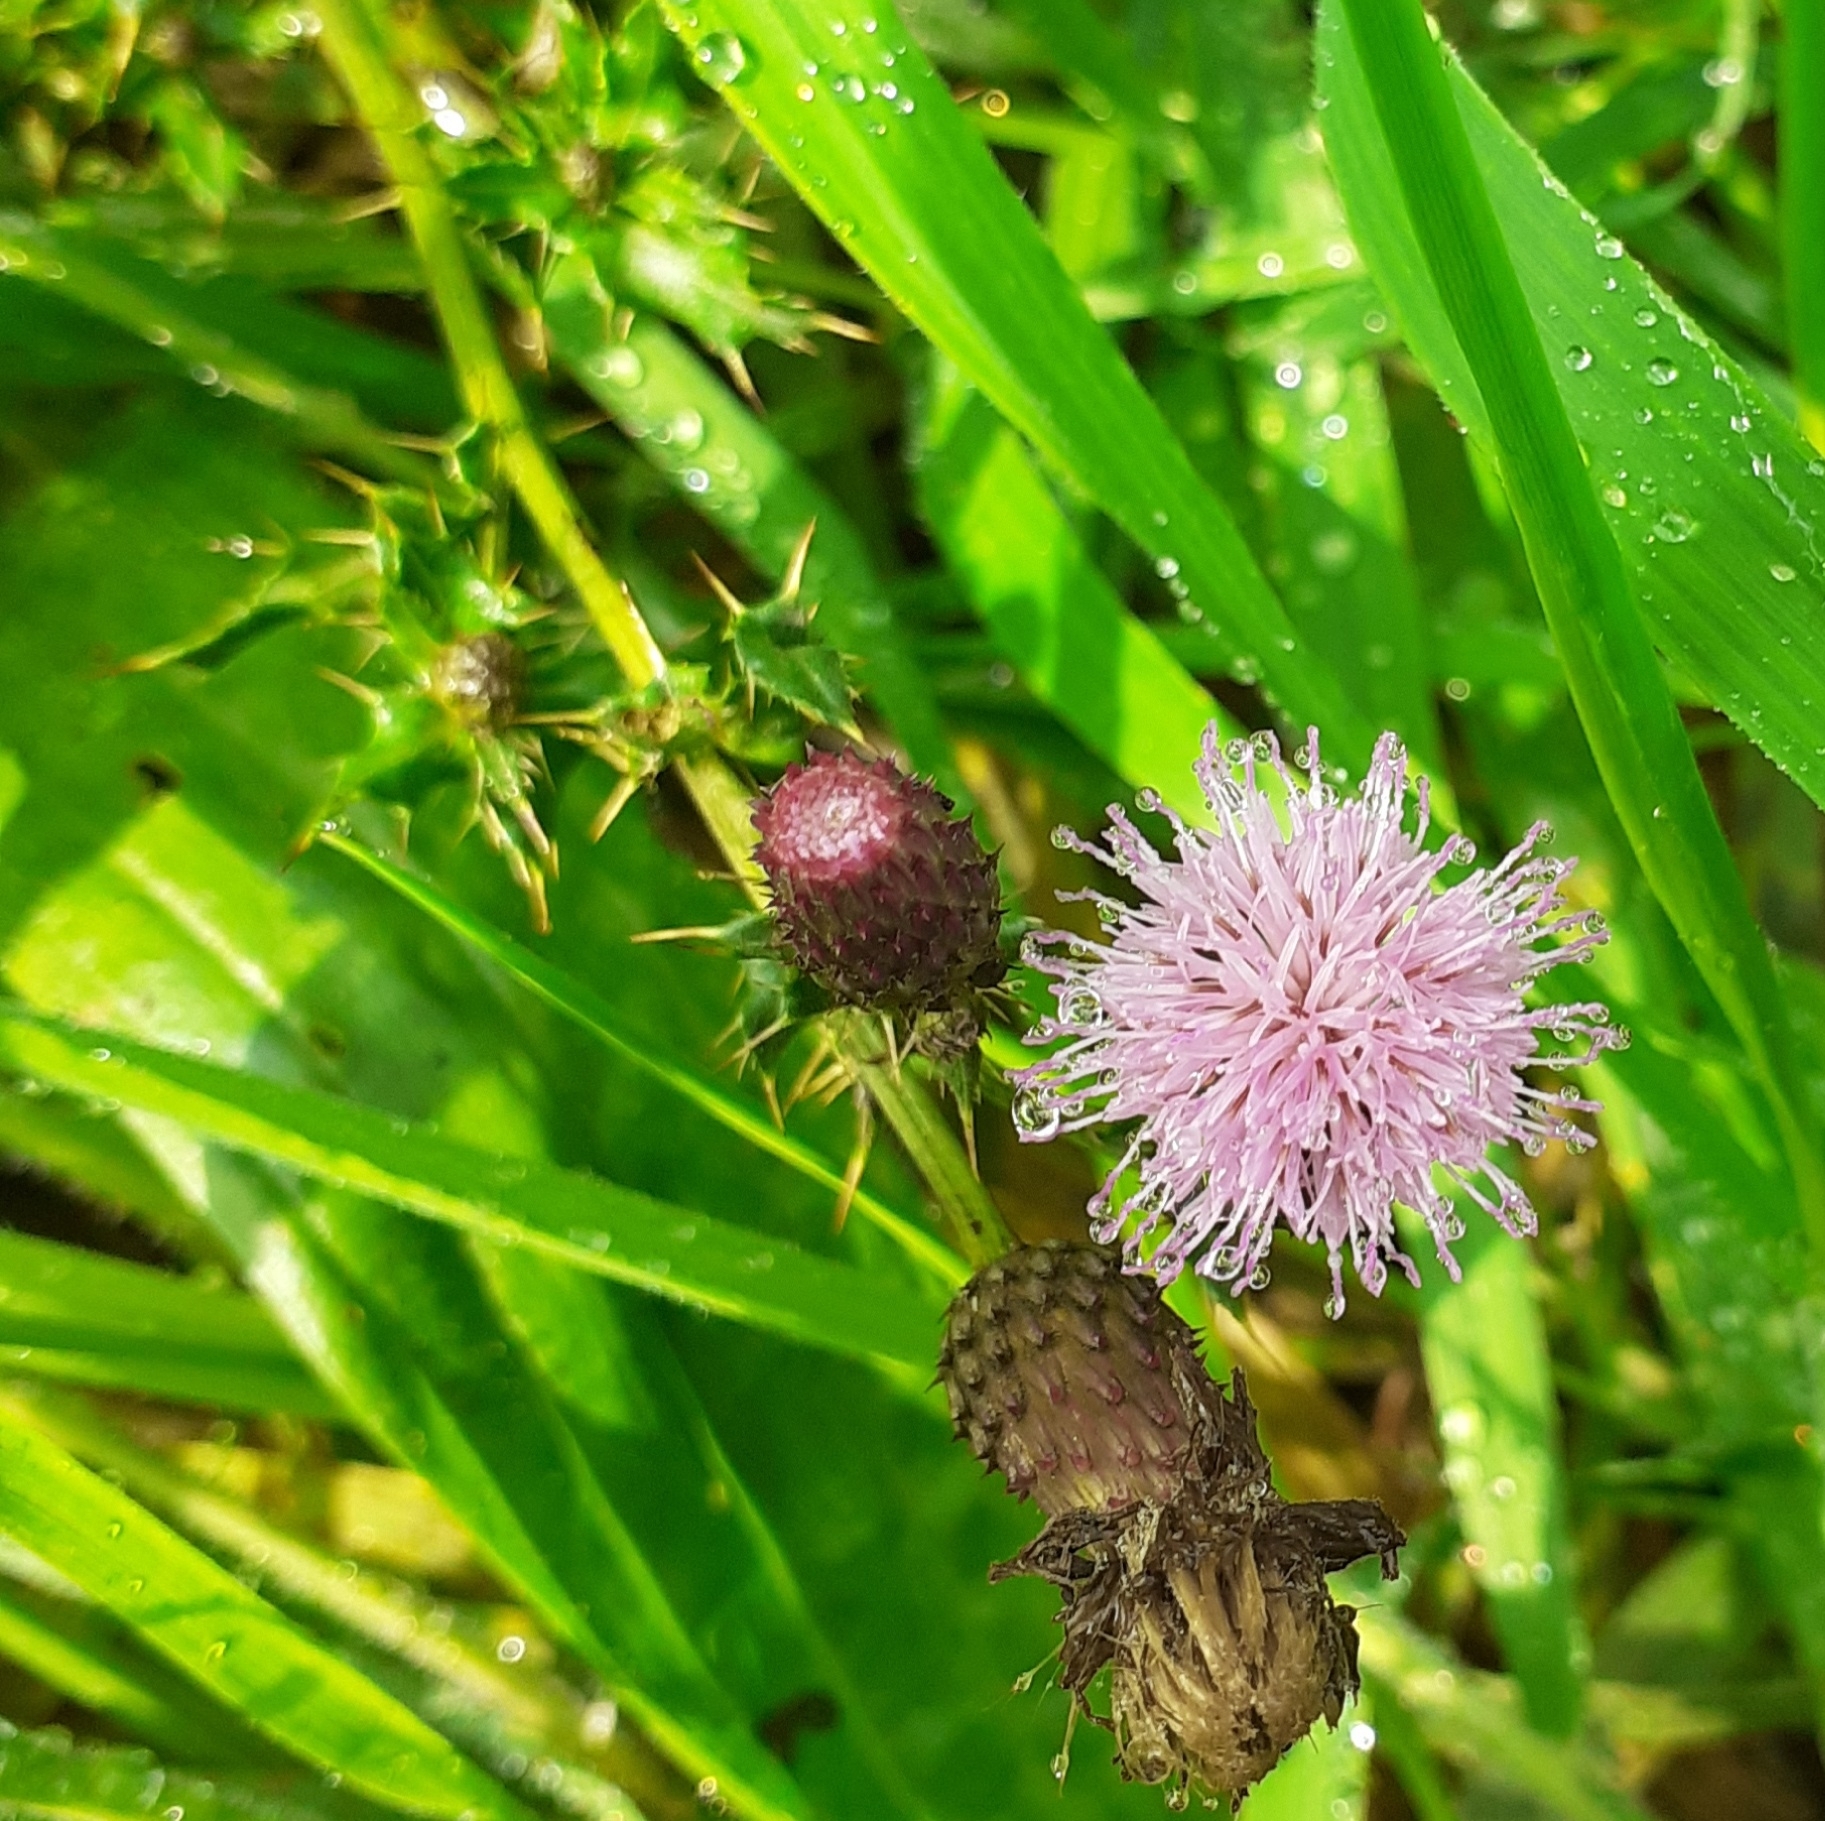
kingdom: Plantae
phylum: Tracheophyta
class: Magnoliopsida
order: Asterales
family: Asteraceae
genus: Cirsium
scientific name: Cirsium arvense
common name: Creeping thistle
